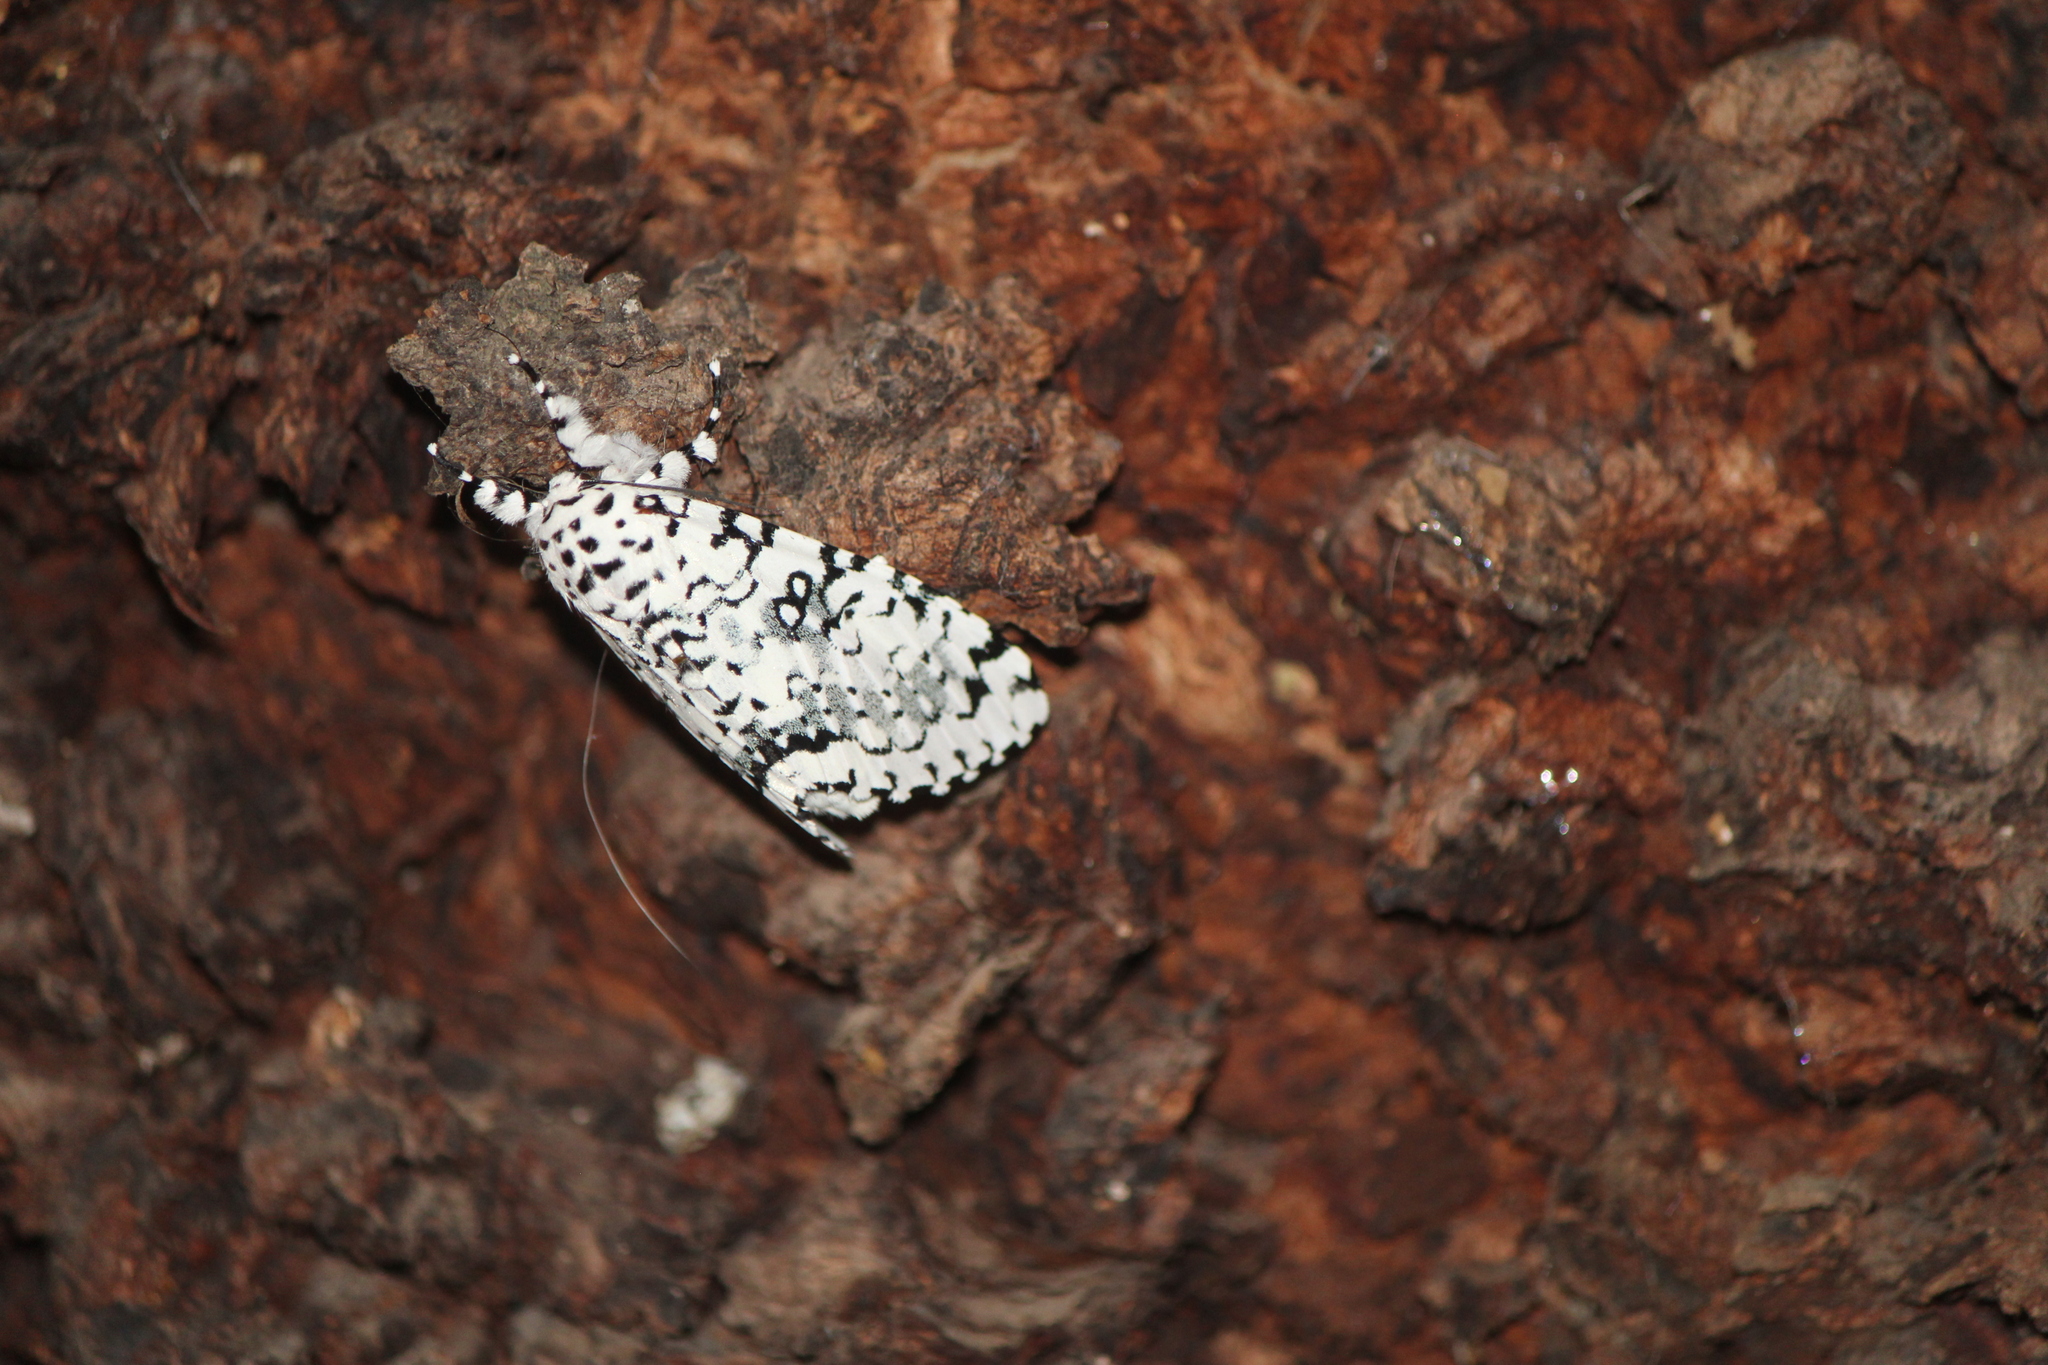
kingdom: Animalia
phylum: Arthropoda
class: Insecta
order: Lepidoptera
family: Noctuidae
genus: Lichnoptera
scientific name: Lichnoptera decora
